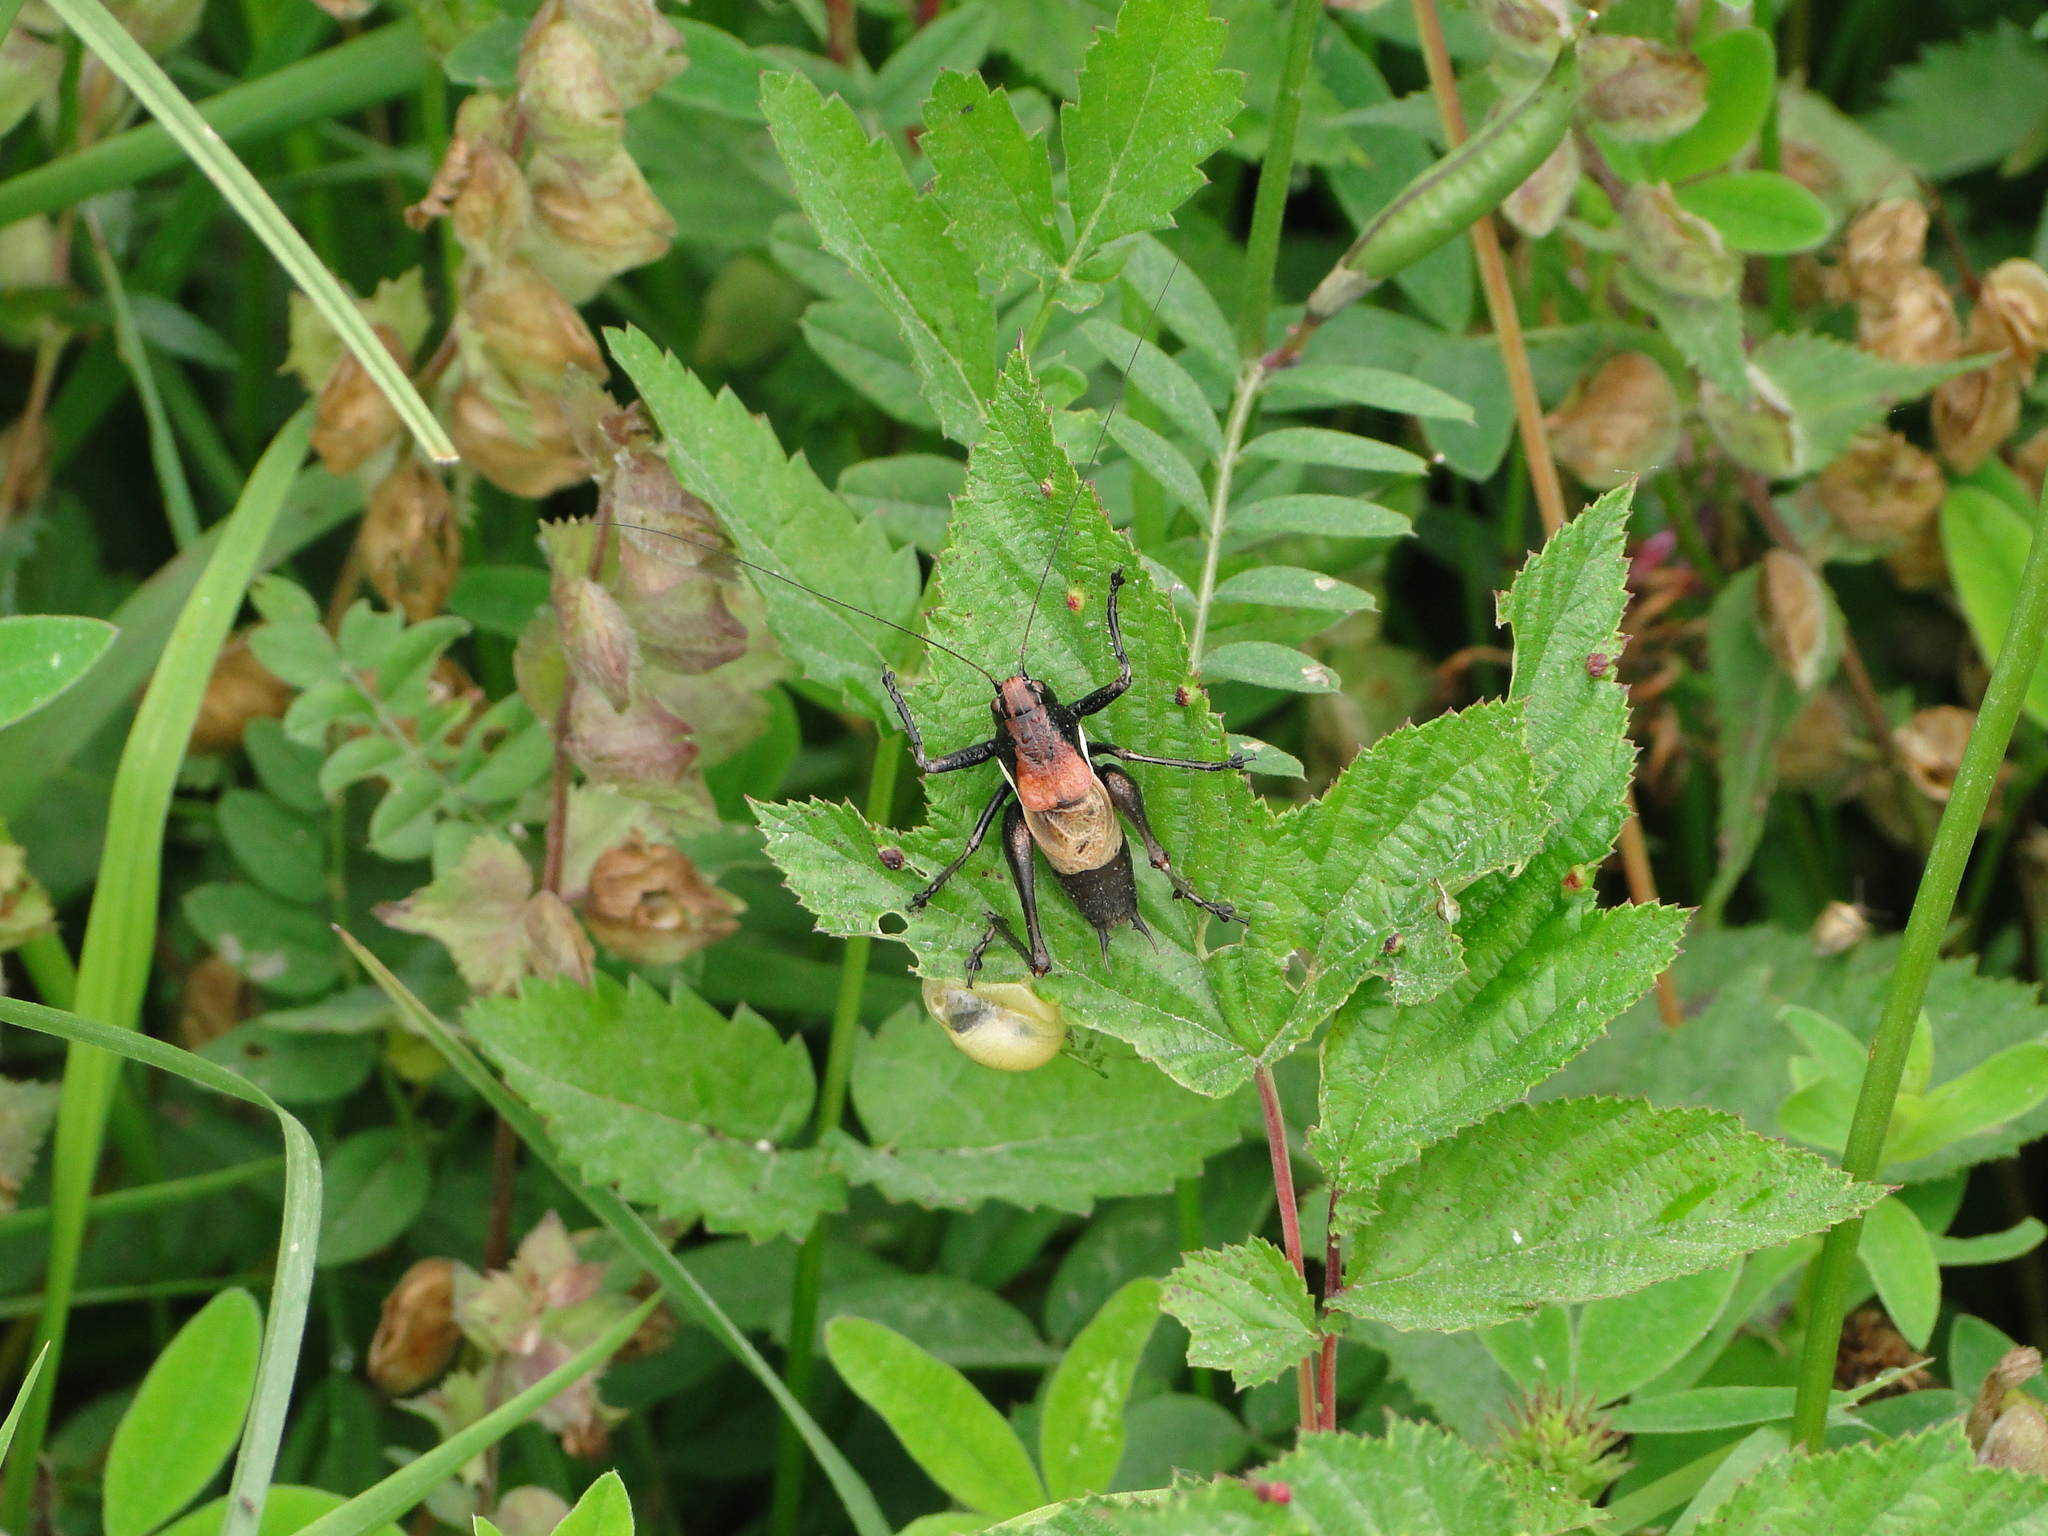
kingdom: Animalia
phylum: Arthropoda
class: Insecta
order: Orthoptera
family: Tettigoniidae
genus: Pholidoptera
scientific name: Pholidoptera aptera
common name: Alpine dark bush-cricket
